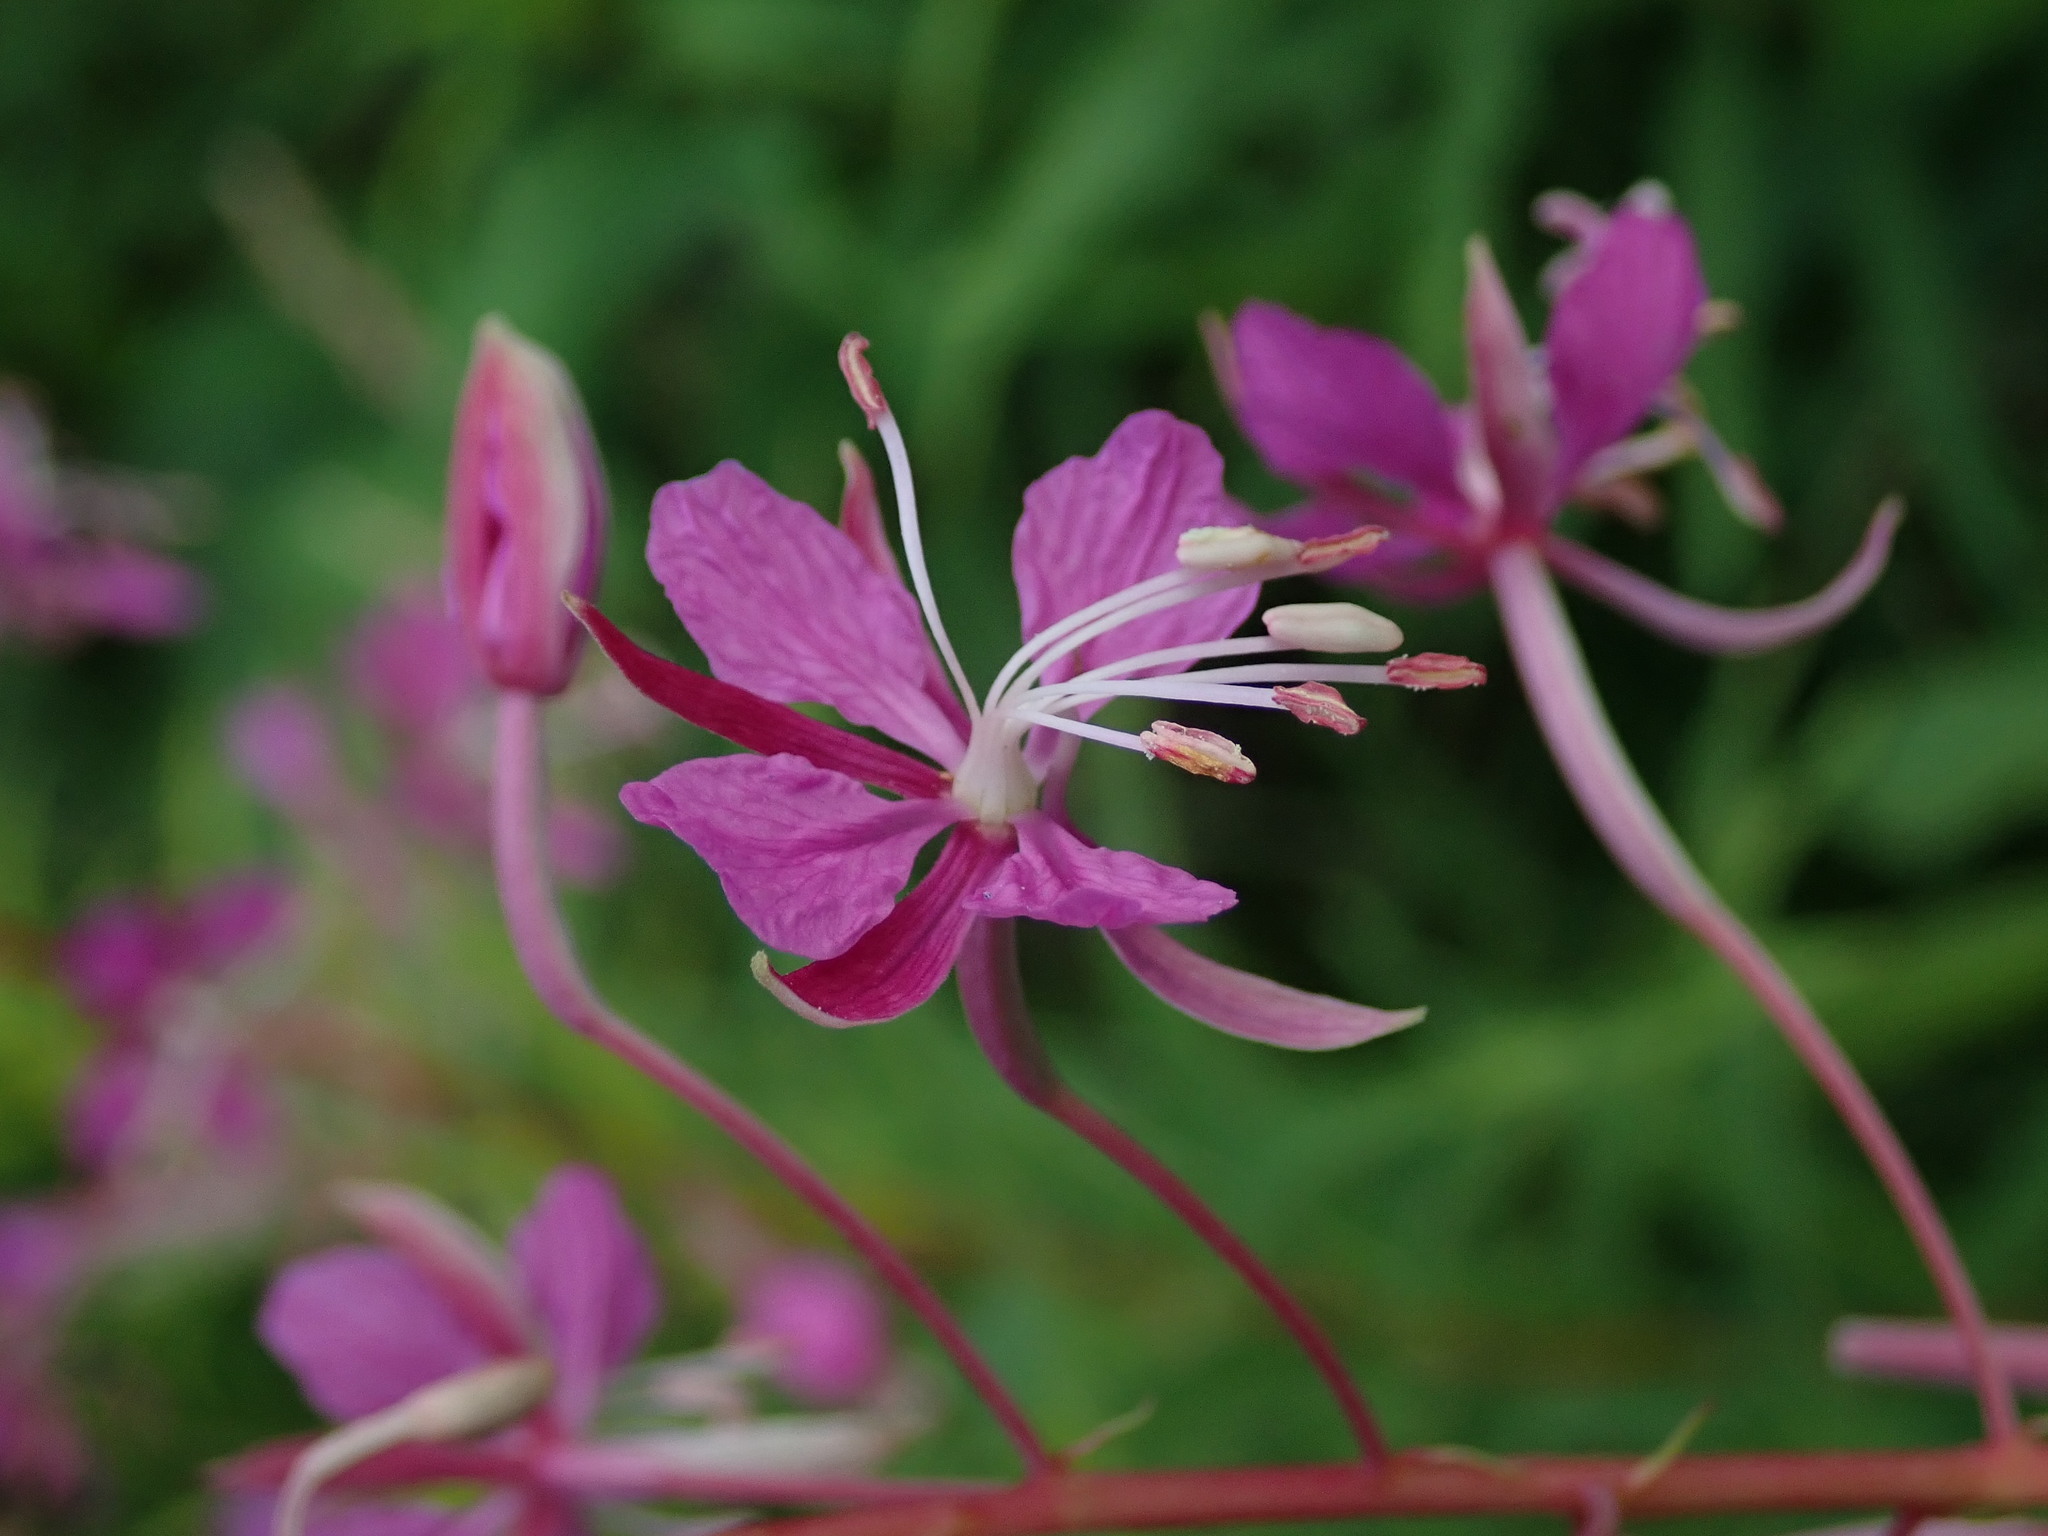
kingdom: Plantae
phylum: Tracheophyta
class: Magnoliopsida
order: Myrtales
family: Onagraceae
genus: Chamaenerion
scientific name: Chamaenerion angustifolium
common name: Fireweed
